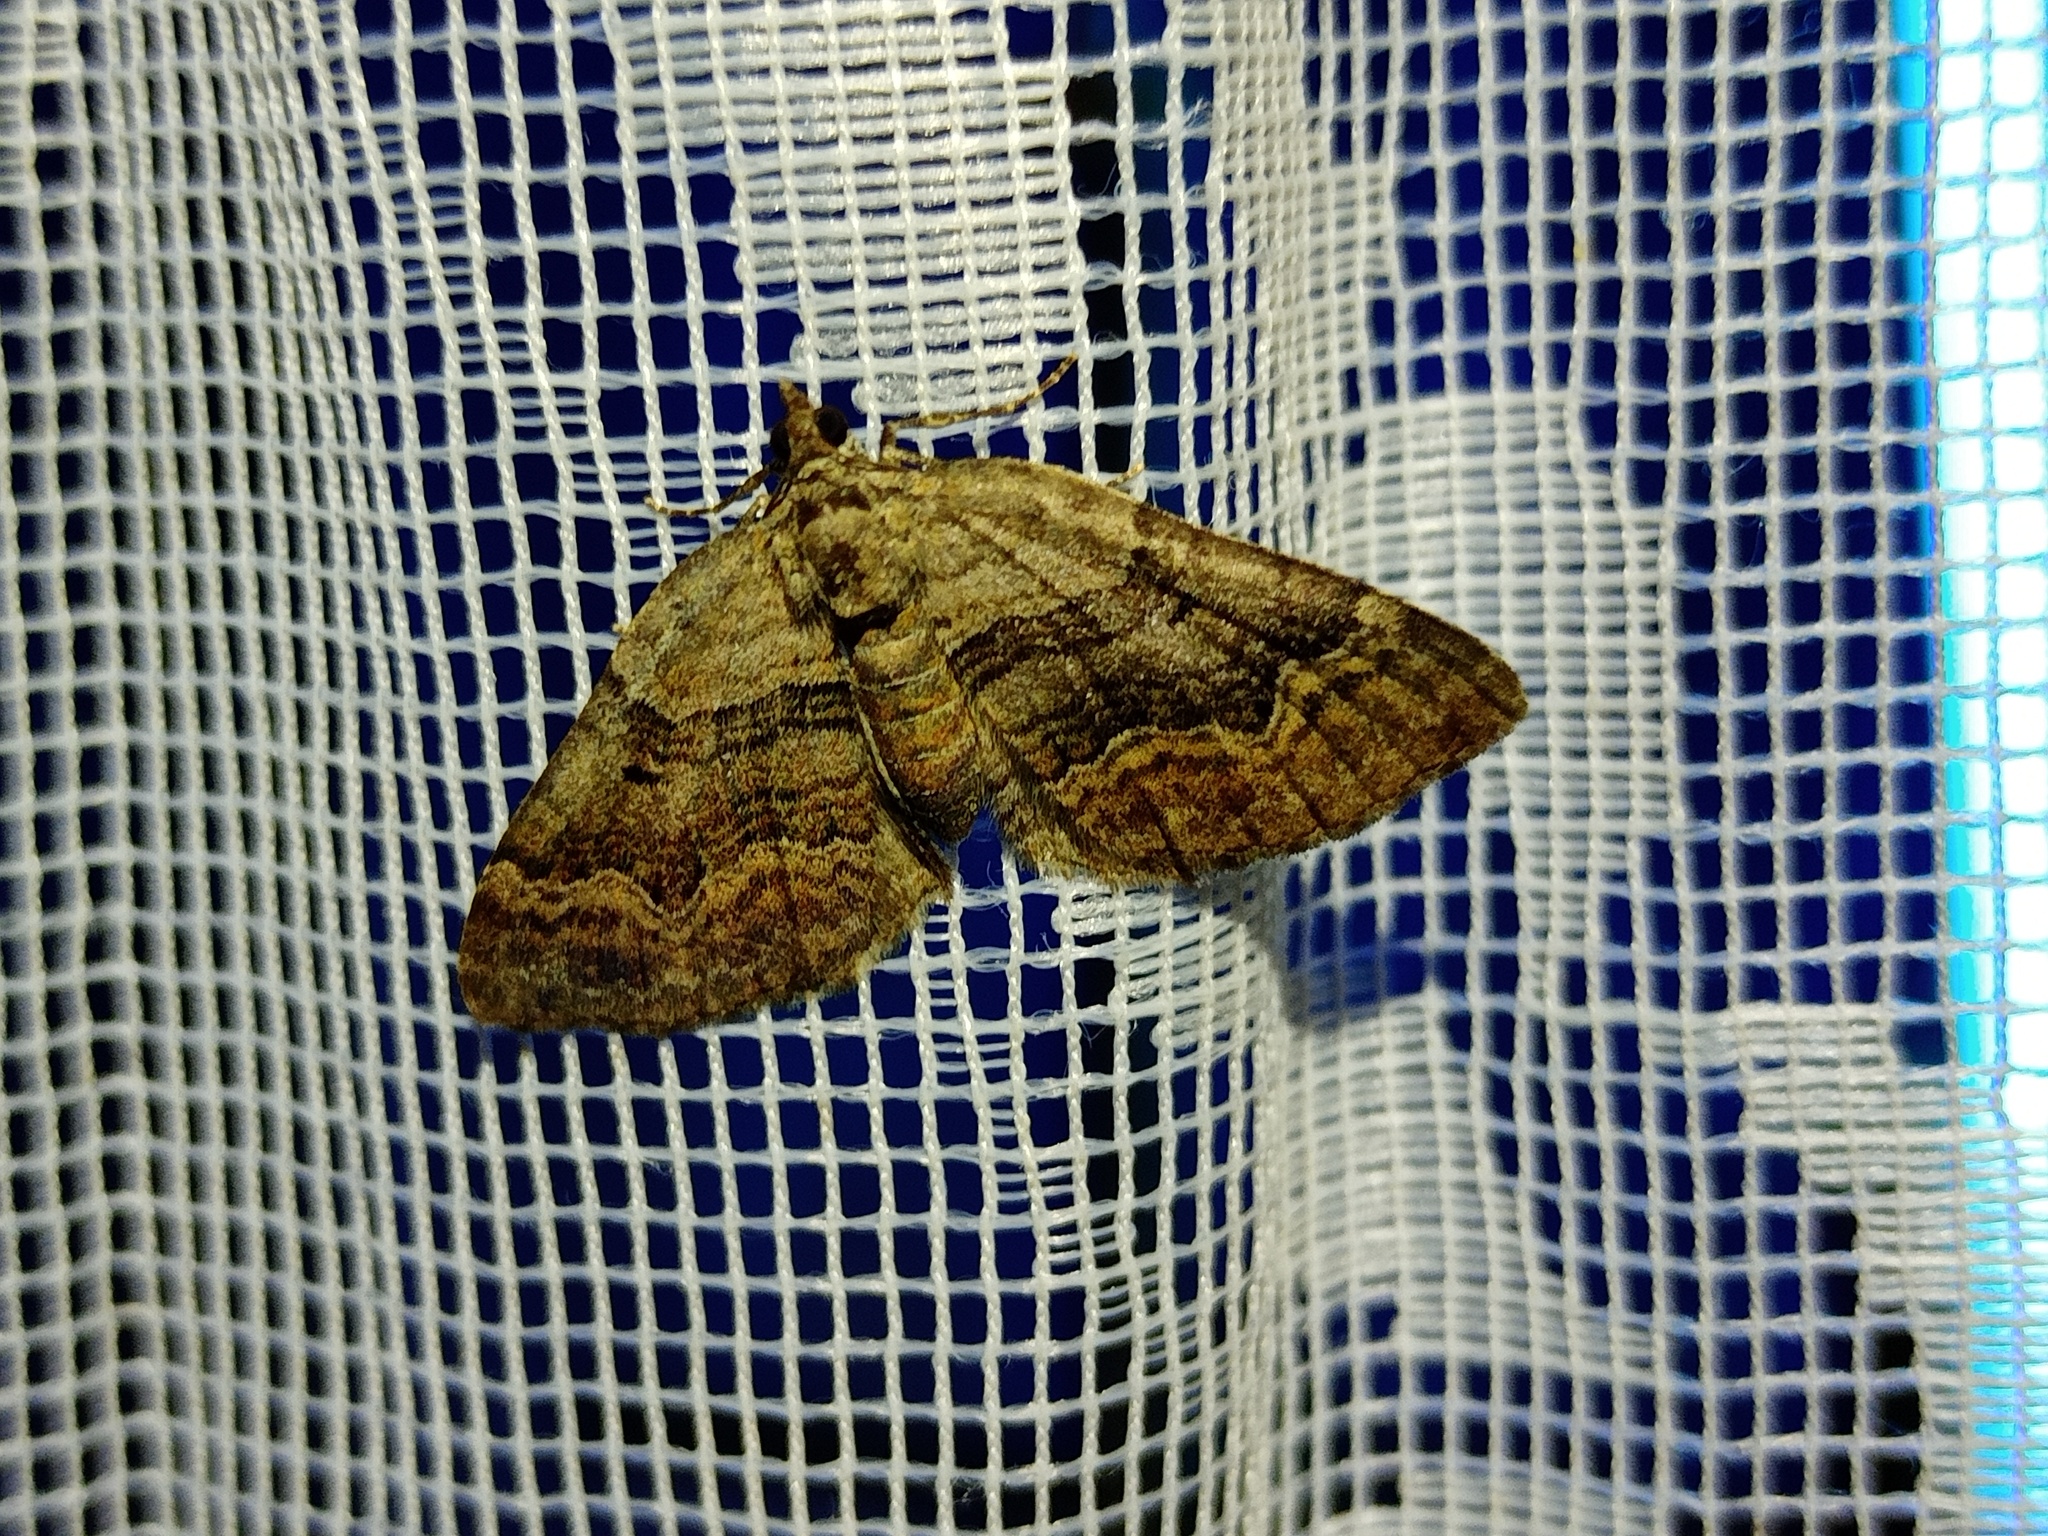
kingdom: Animalia
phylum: Arthropoda
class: Insecta
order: Lepidoptera
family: Geometridae
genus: Xanthorhoe
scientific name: Xanthorhoe quadrifasiata
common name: Large twin-spot carpet
